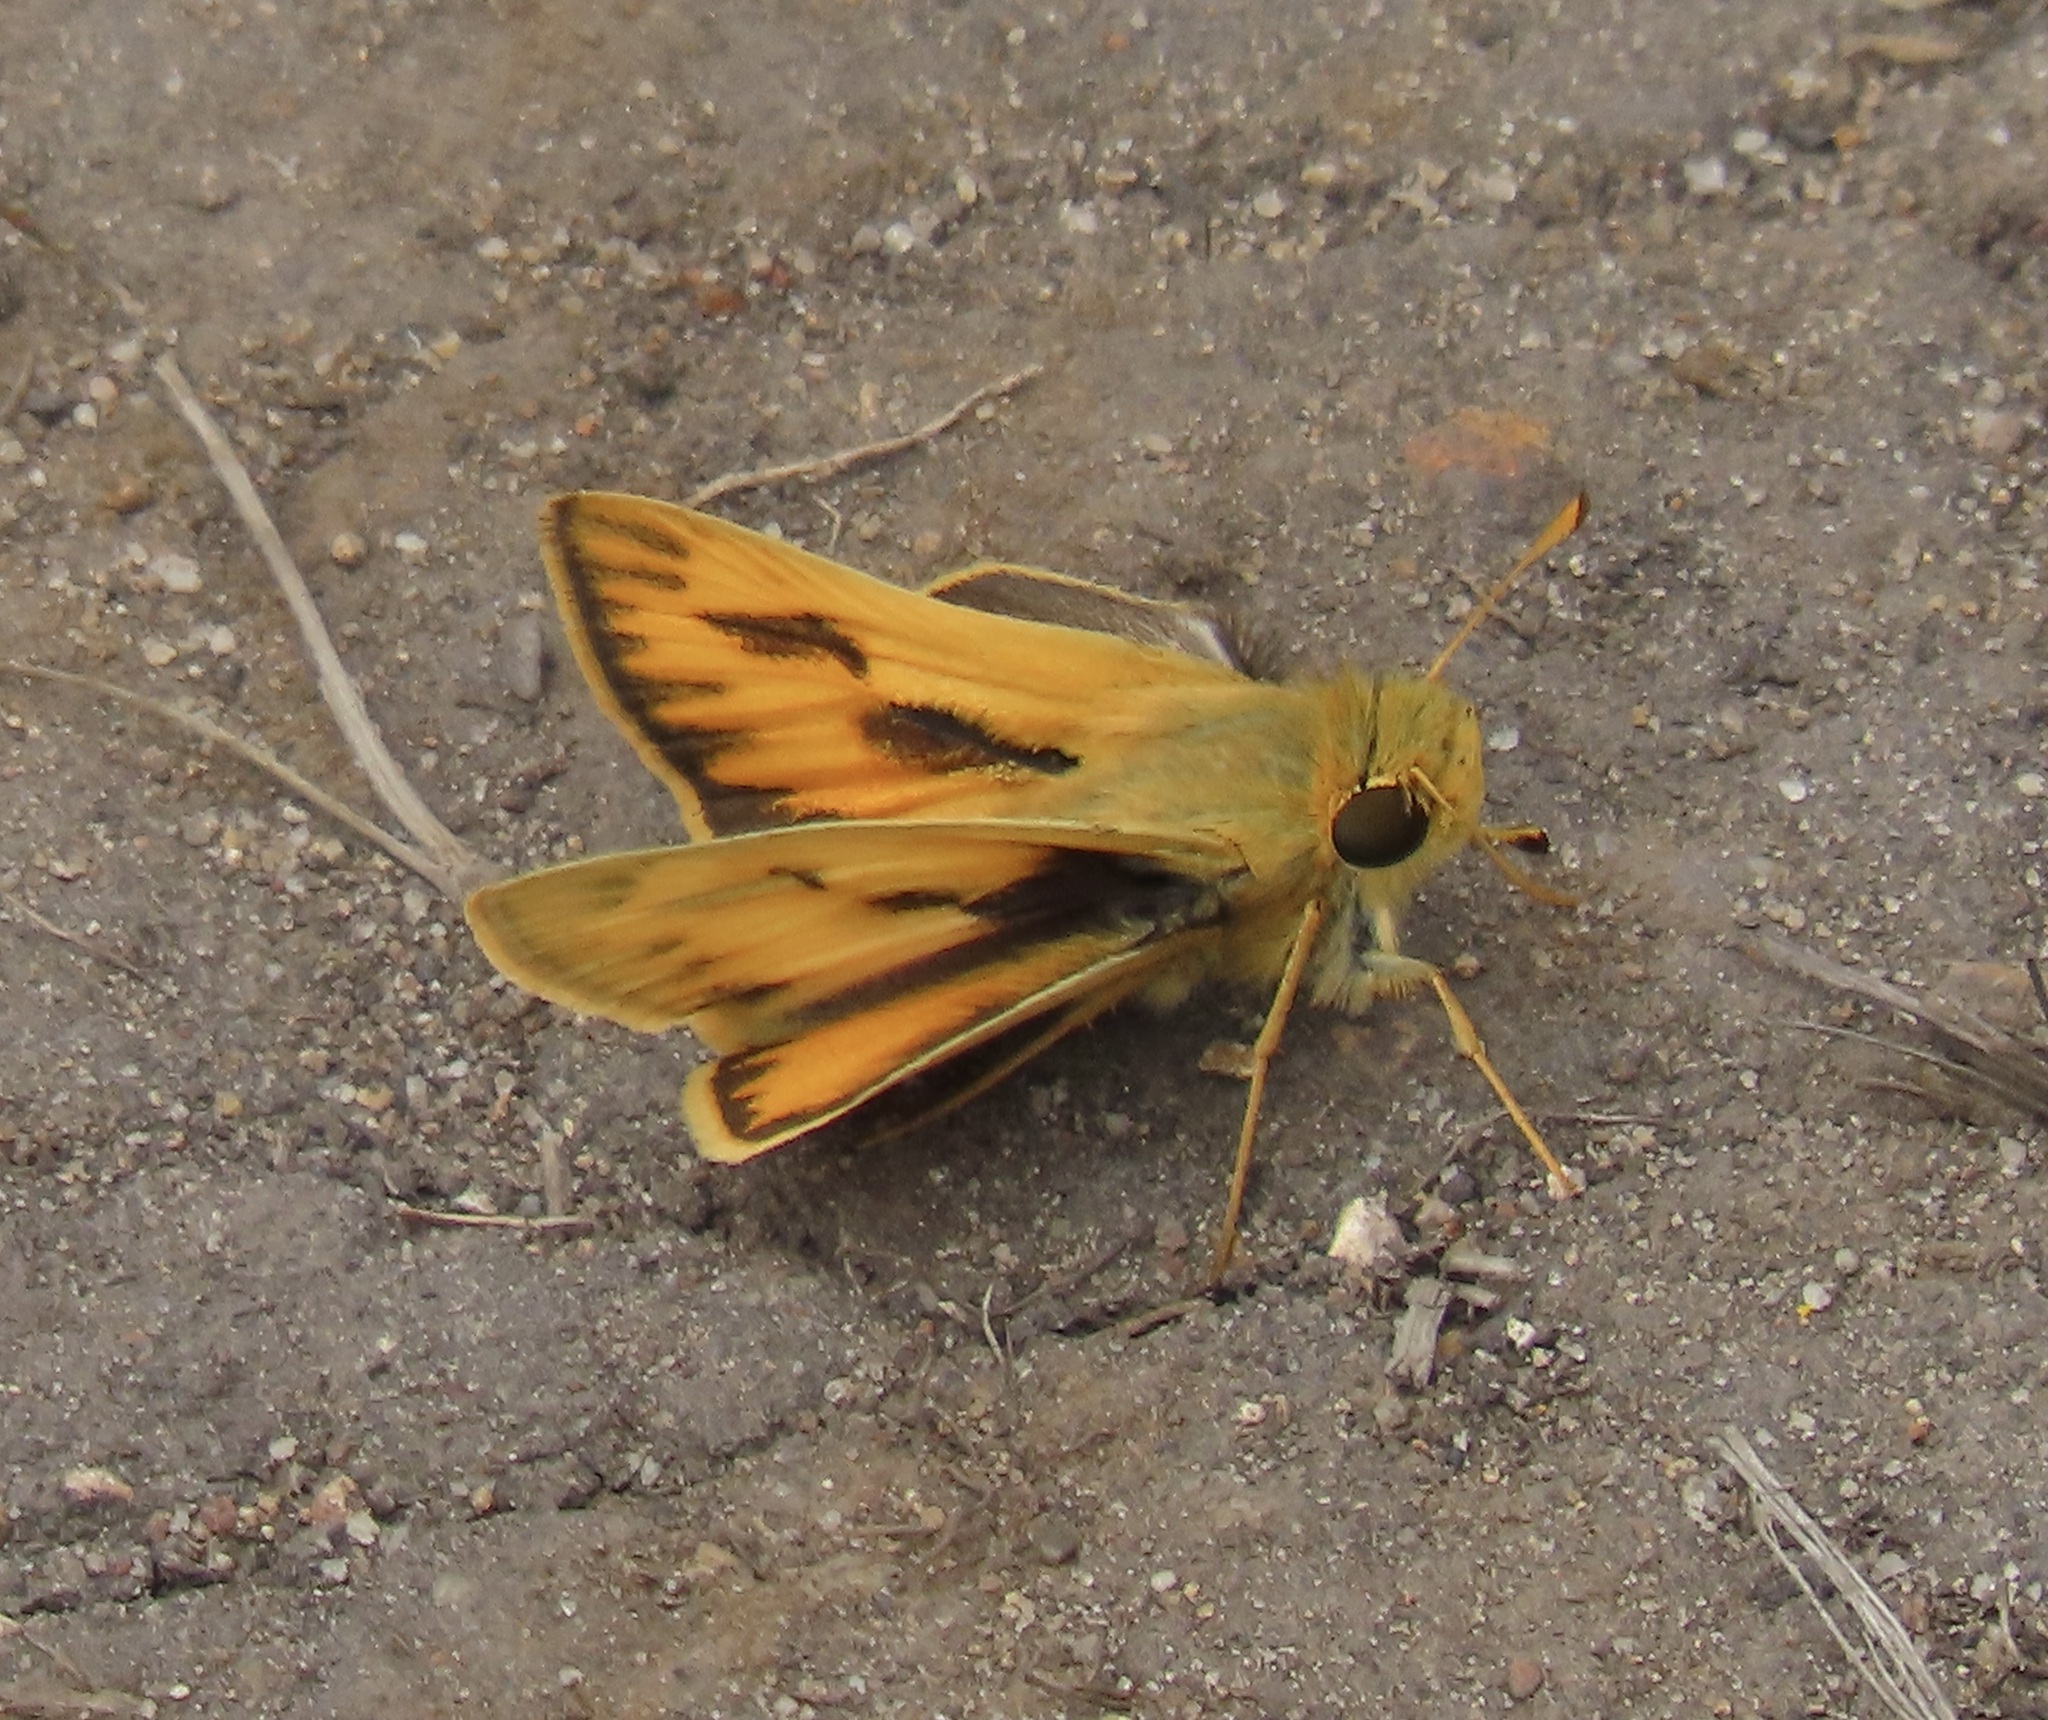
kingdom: Animalia
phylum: Arthropoda
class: Insecta
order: Lepidoptera
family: Hesperiidae
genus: Hylephila
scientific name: Hylephila phyleus
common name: Fiery skipper
